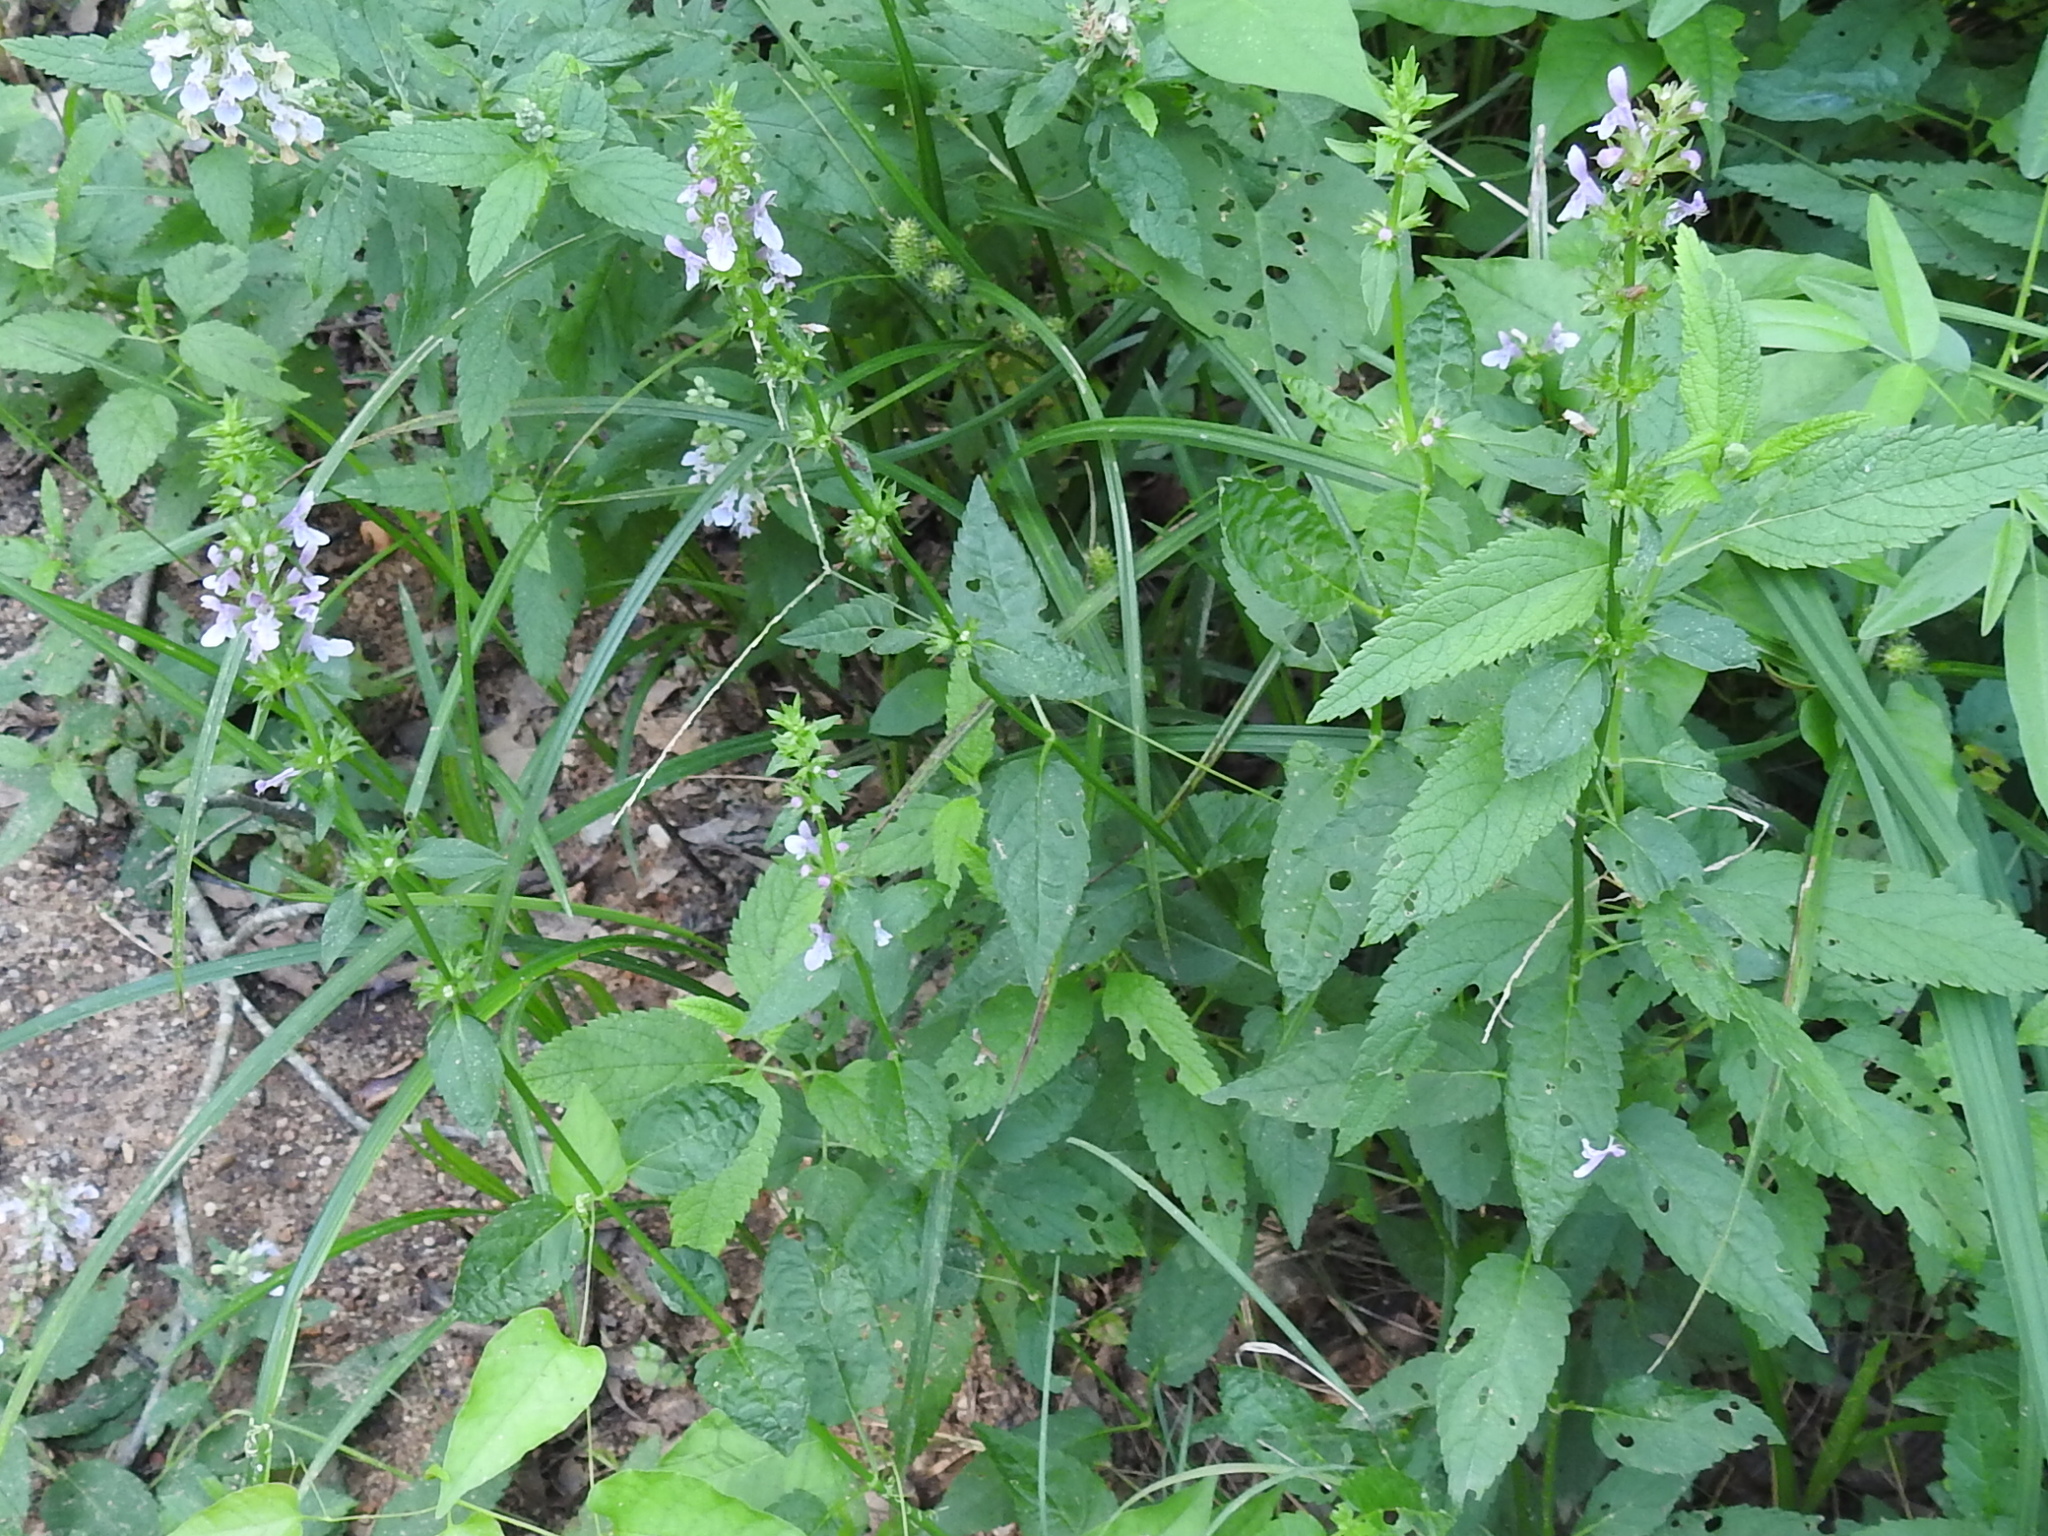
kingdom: Plantae
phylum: Tracheophyta
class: Magnoliopsida
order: Lamiales
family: Lamiaceae
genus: Stachys
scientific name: Stachys floridana
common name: Florida betony
